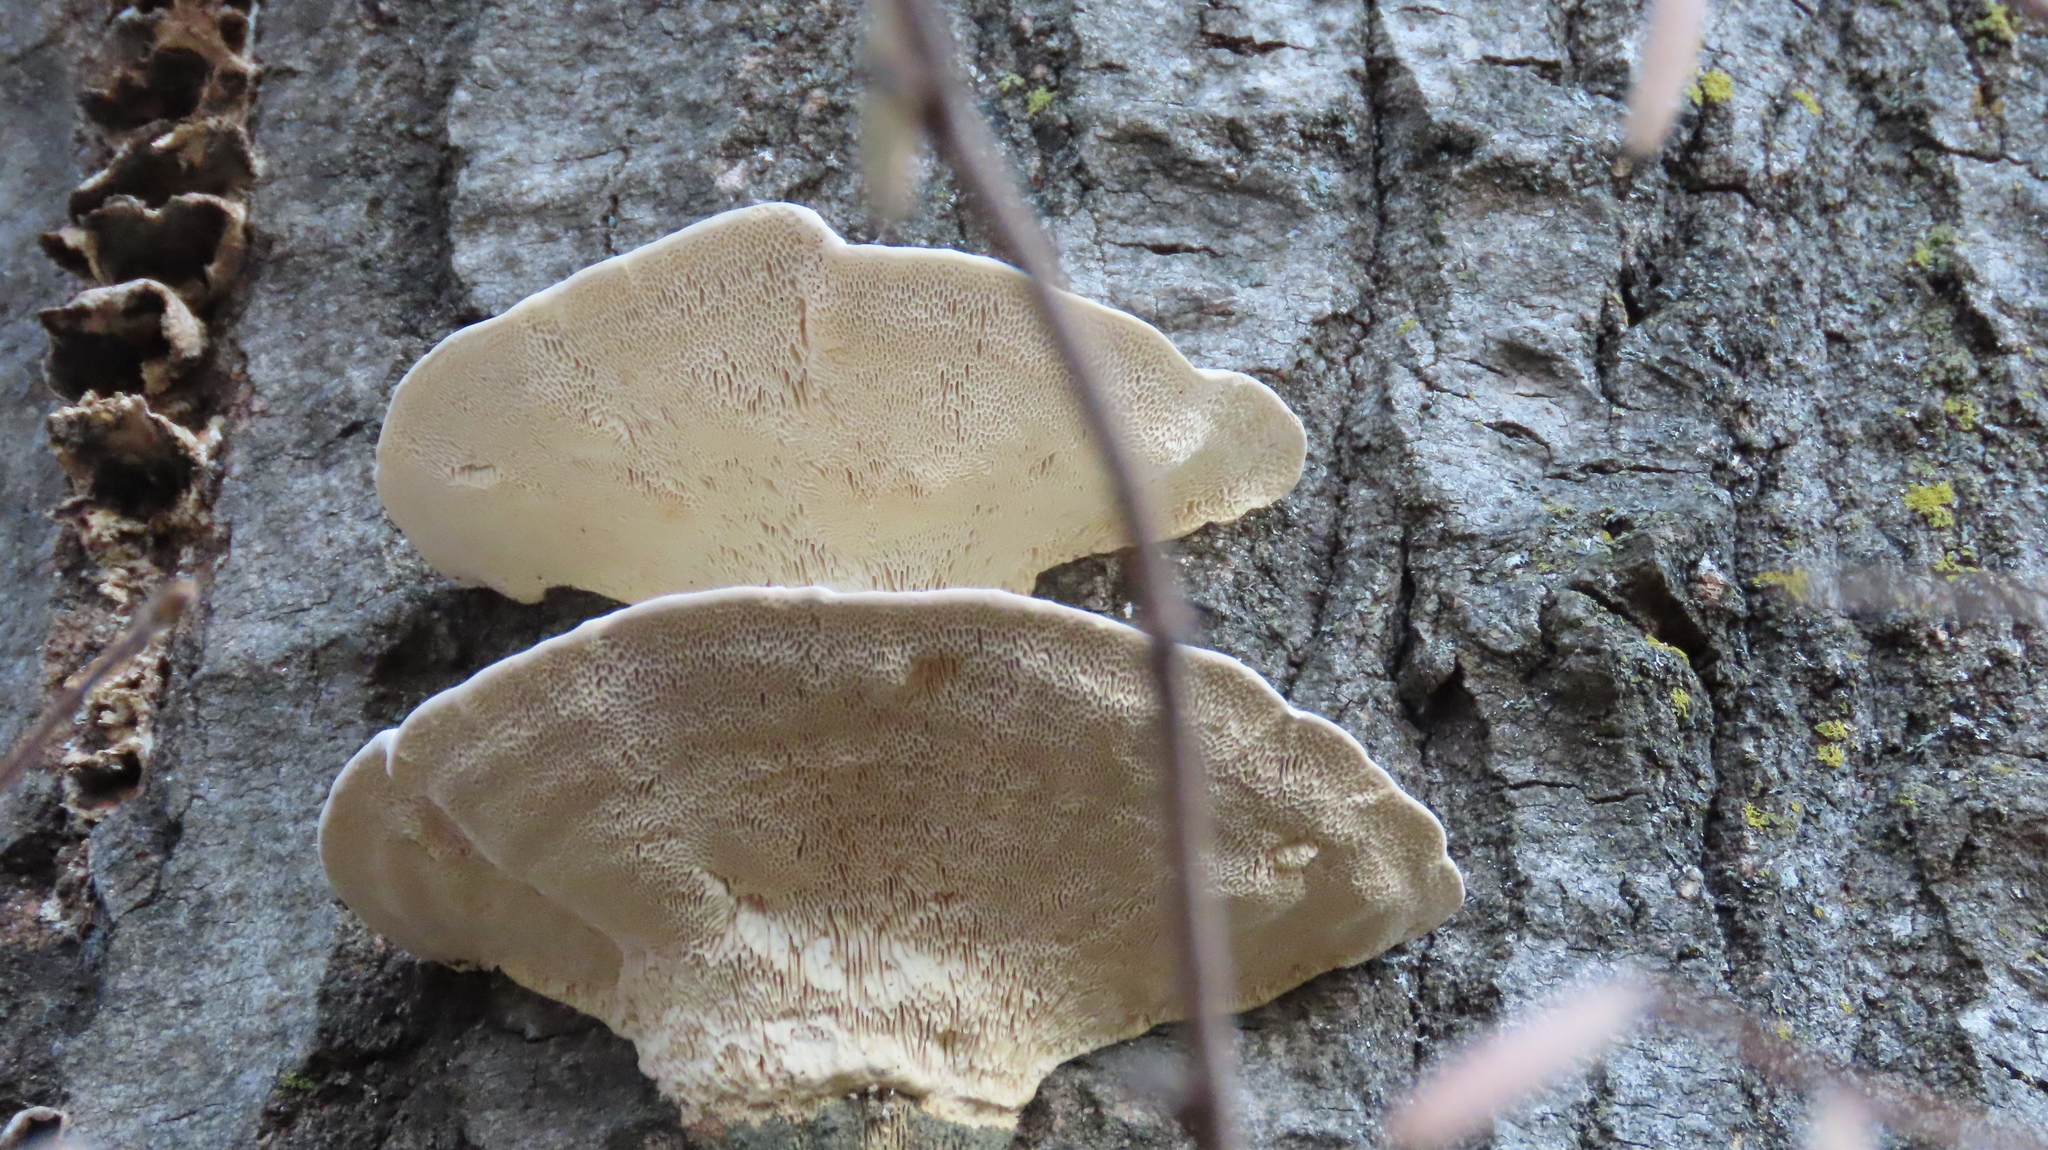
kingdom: Fungi
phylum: Basidiomycota
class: Agaricomycetes
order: Polyporales
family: Polyporaceae
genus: Trametes
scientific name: Trametes gibbosa
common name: Lumpy bracket
